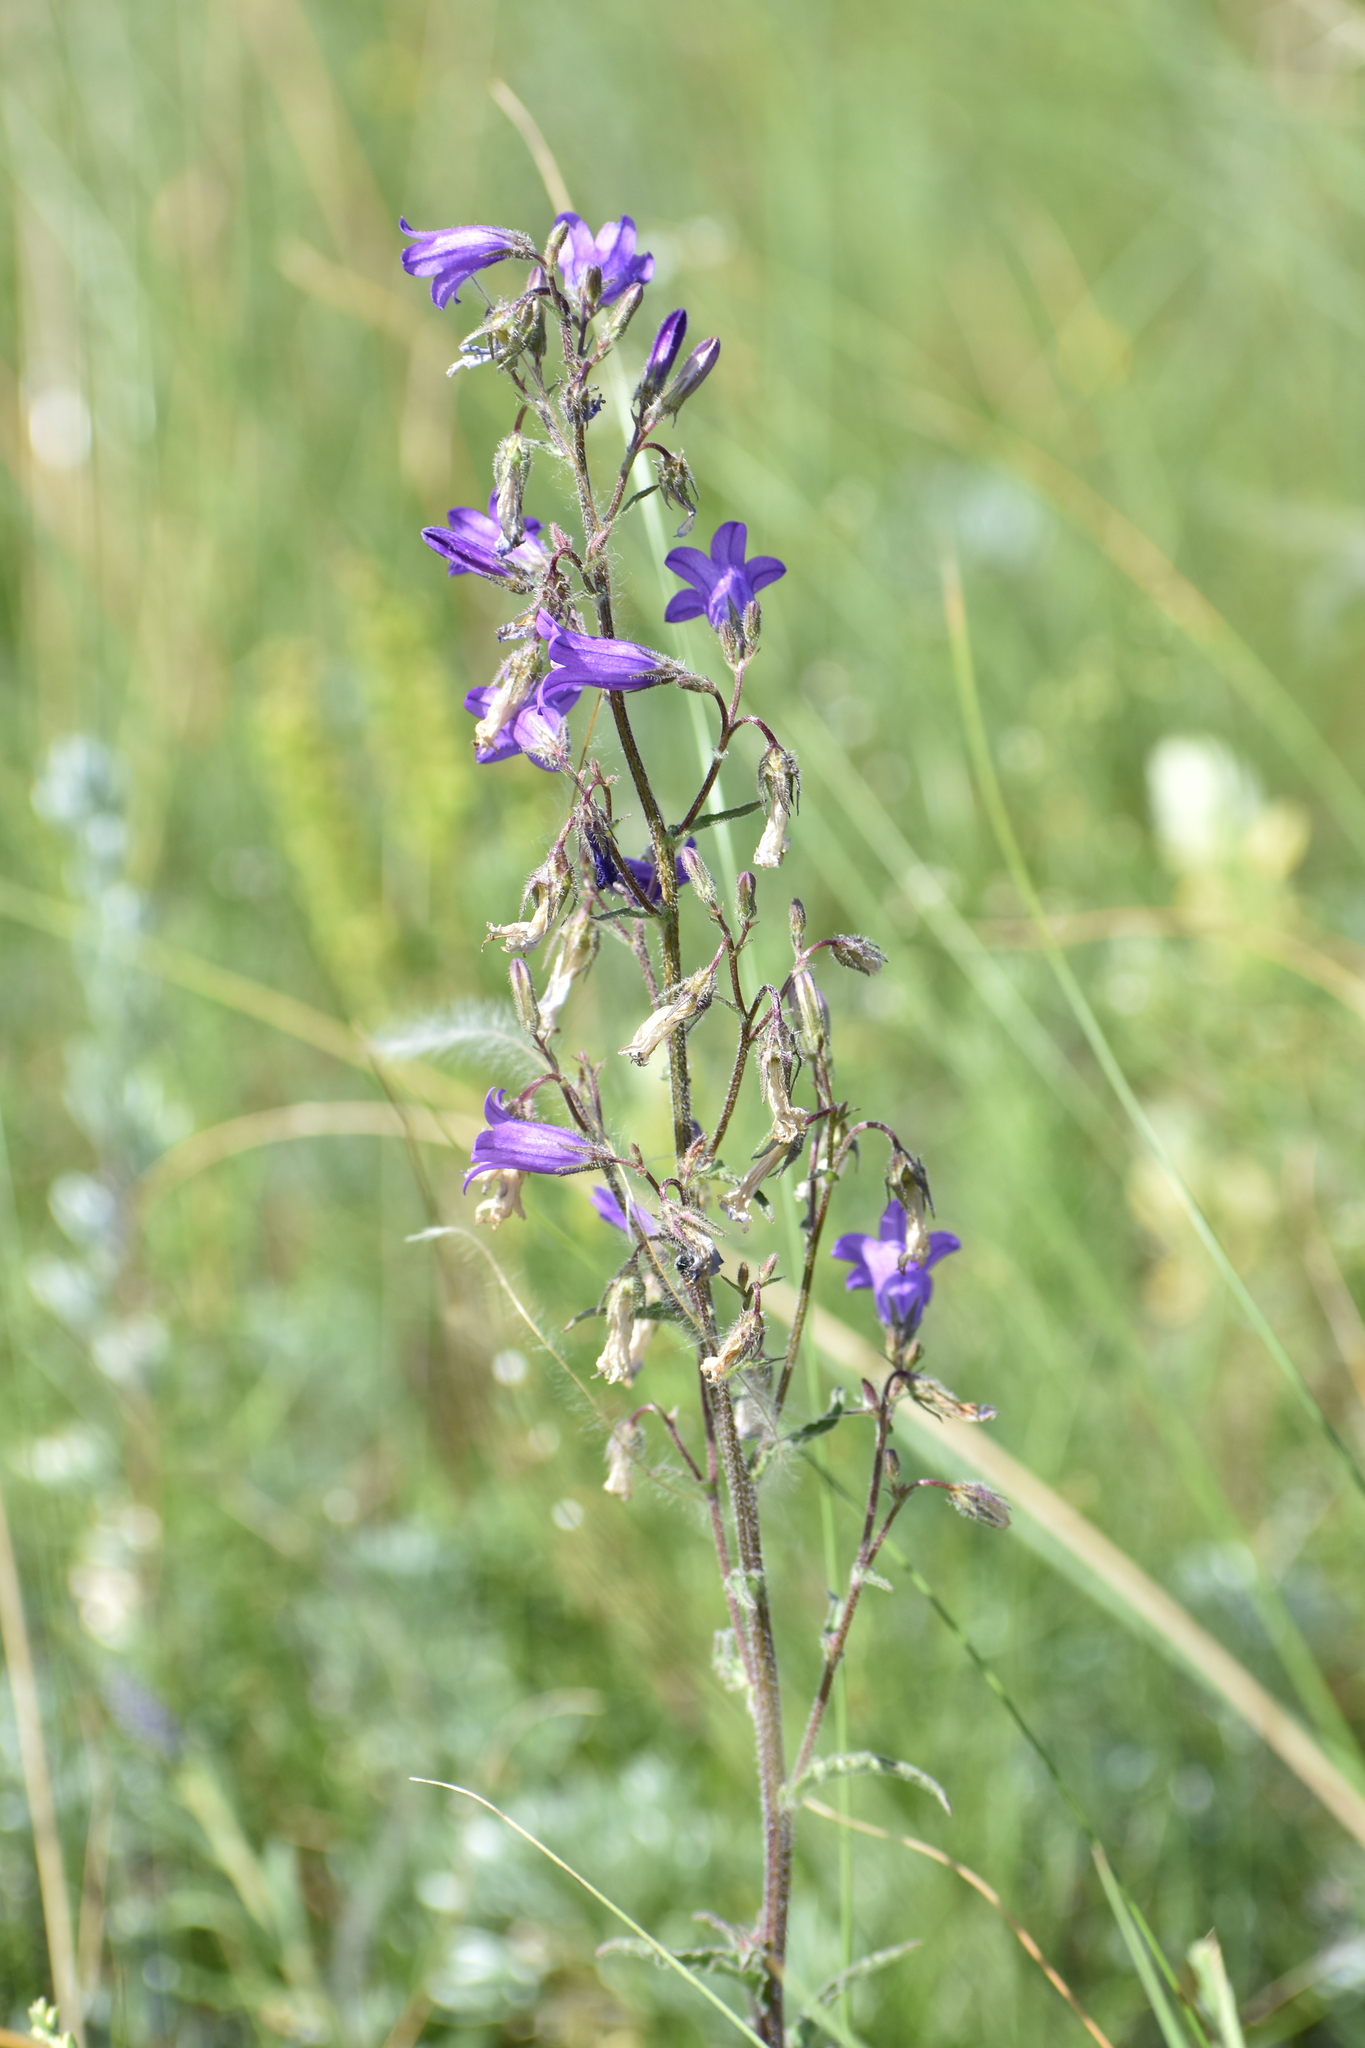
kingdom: Plantae
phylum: Tracheophyta
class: Magnoliopsida
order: Asterales
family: Campanulaceae
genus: Campanula
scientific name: Campanula sibirica
